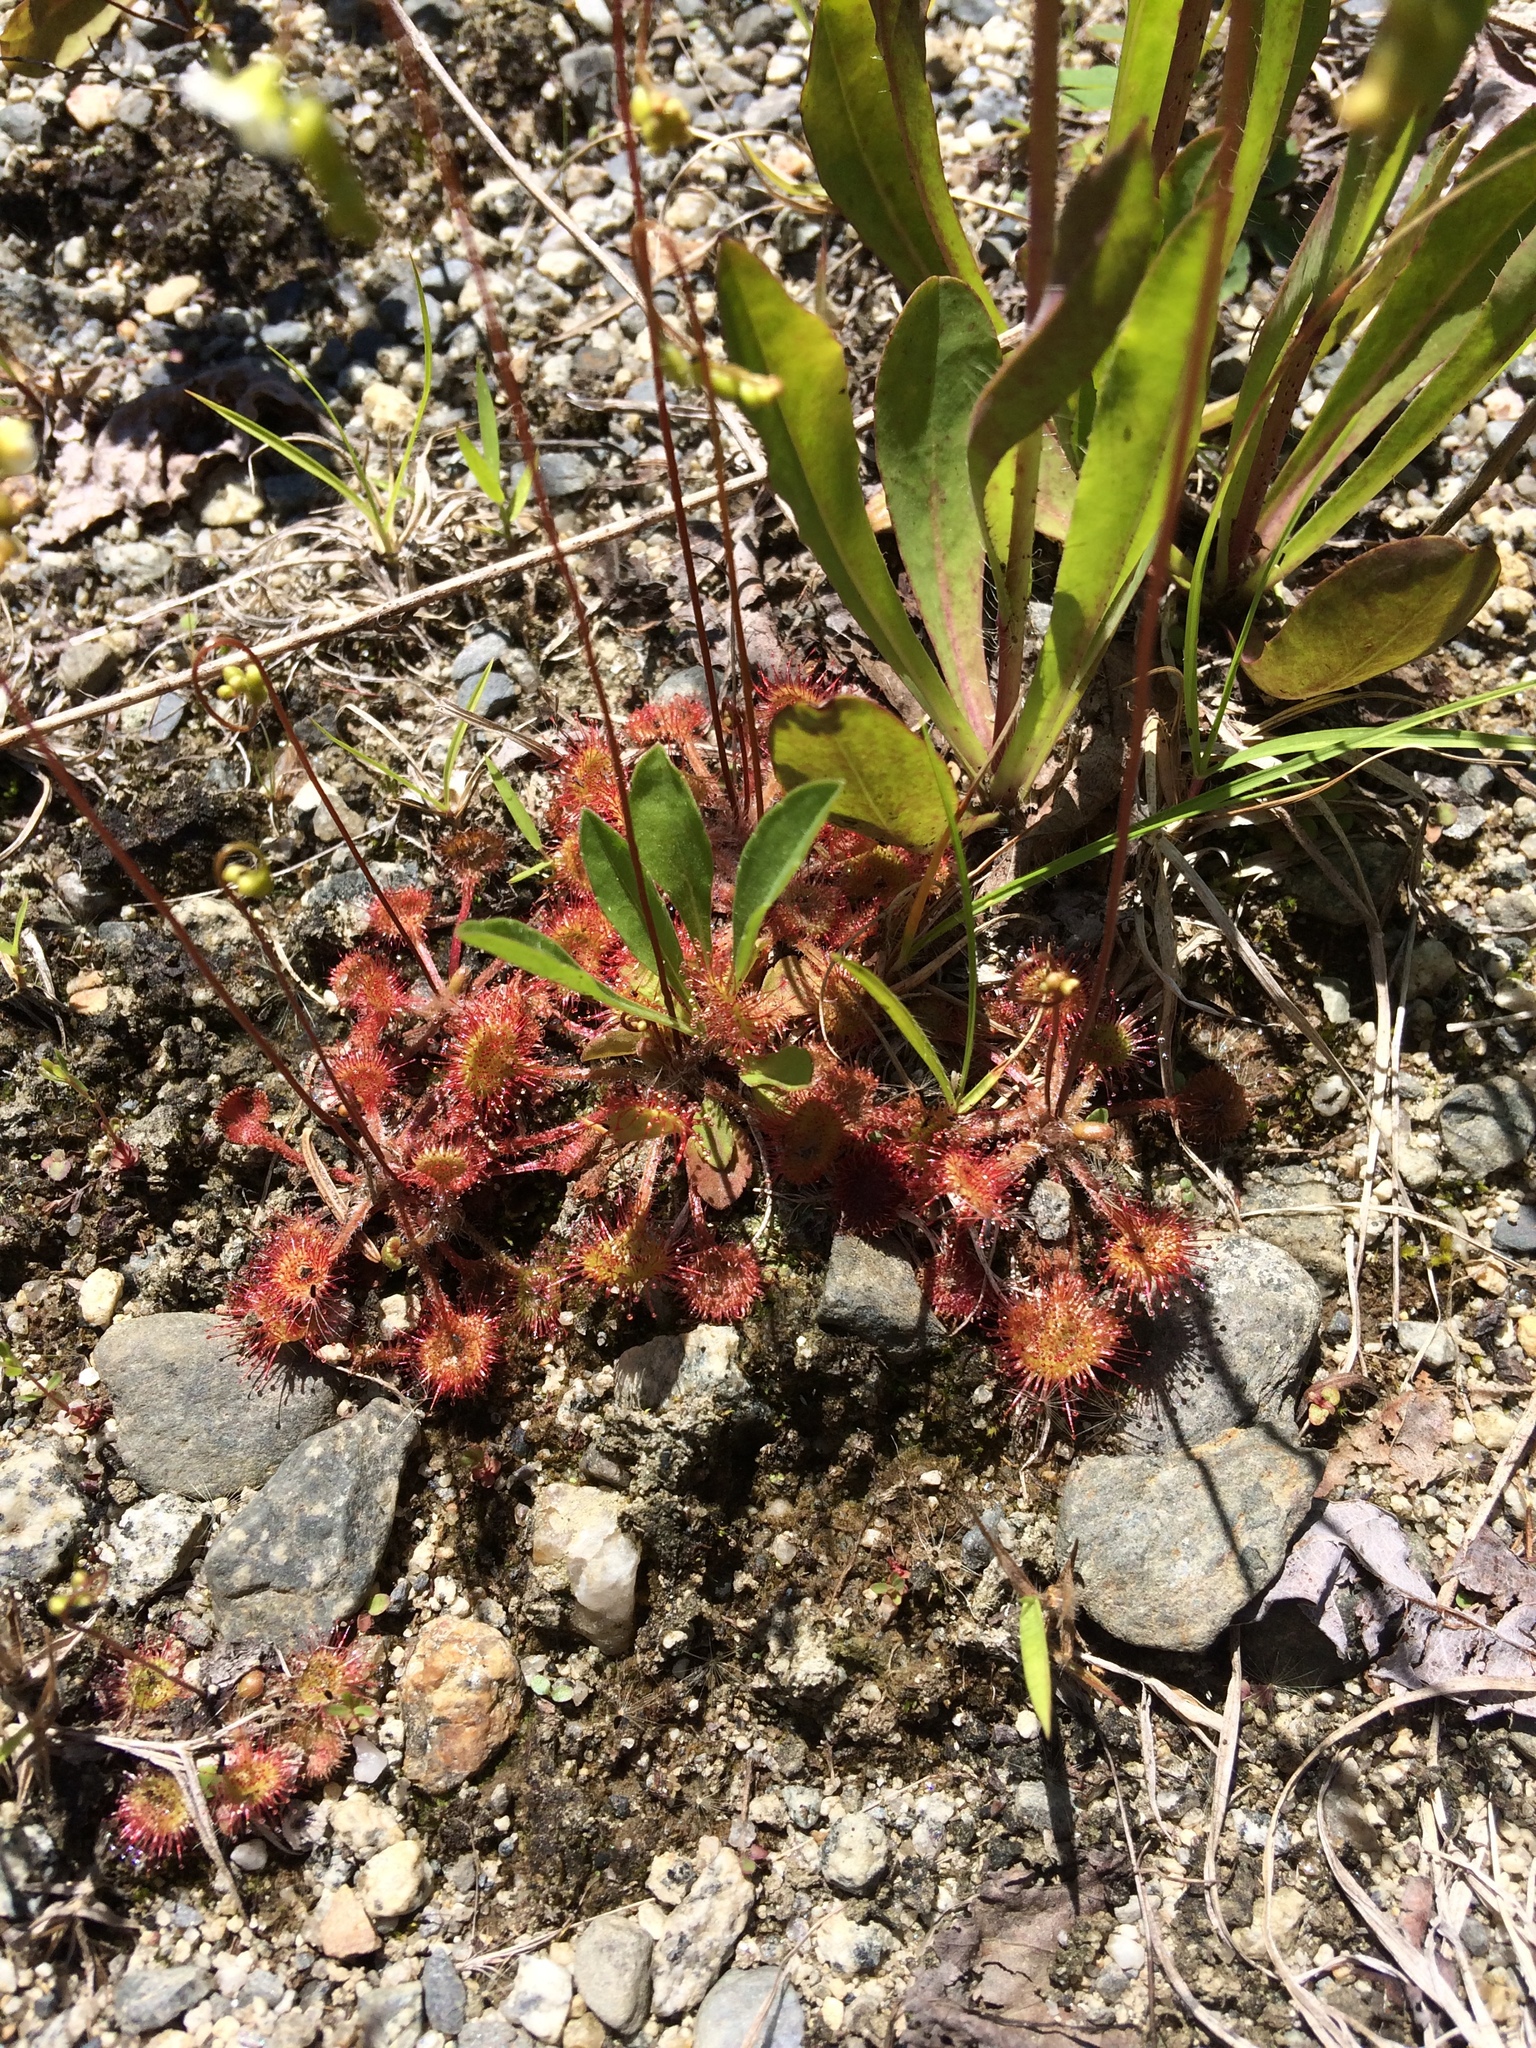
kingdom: Plantae
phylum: Tracheophyta
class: Magnoliopsida
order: Caryophyllales
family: Droseraceae
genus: Drosera
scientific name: Drosera rotundifolia
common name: Round-leaved sundew
